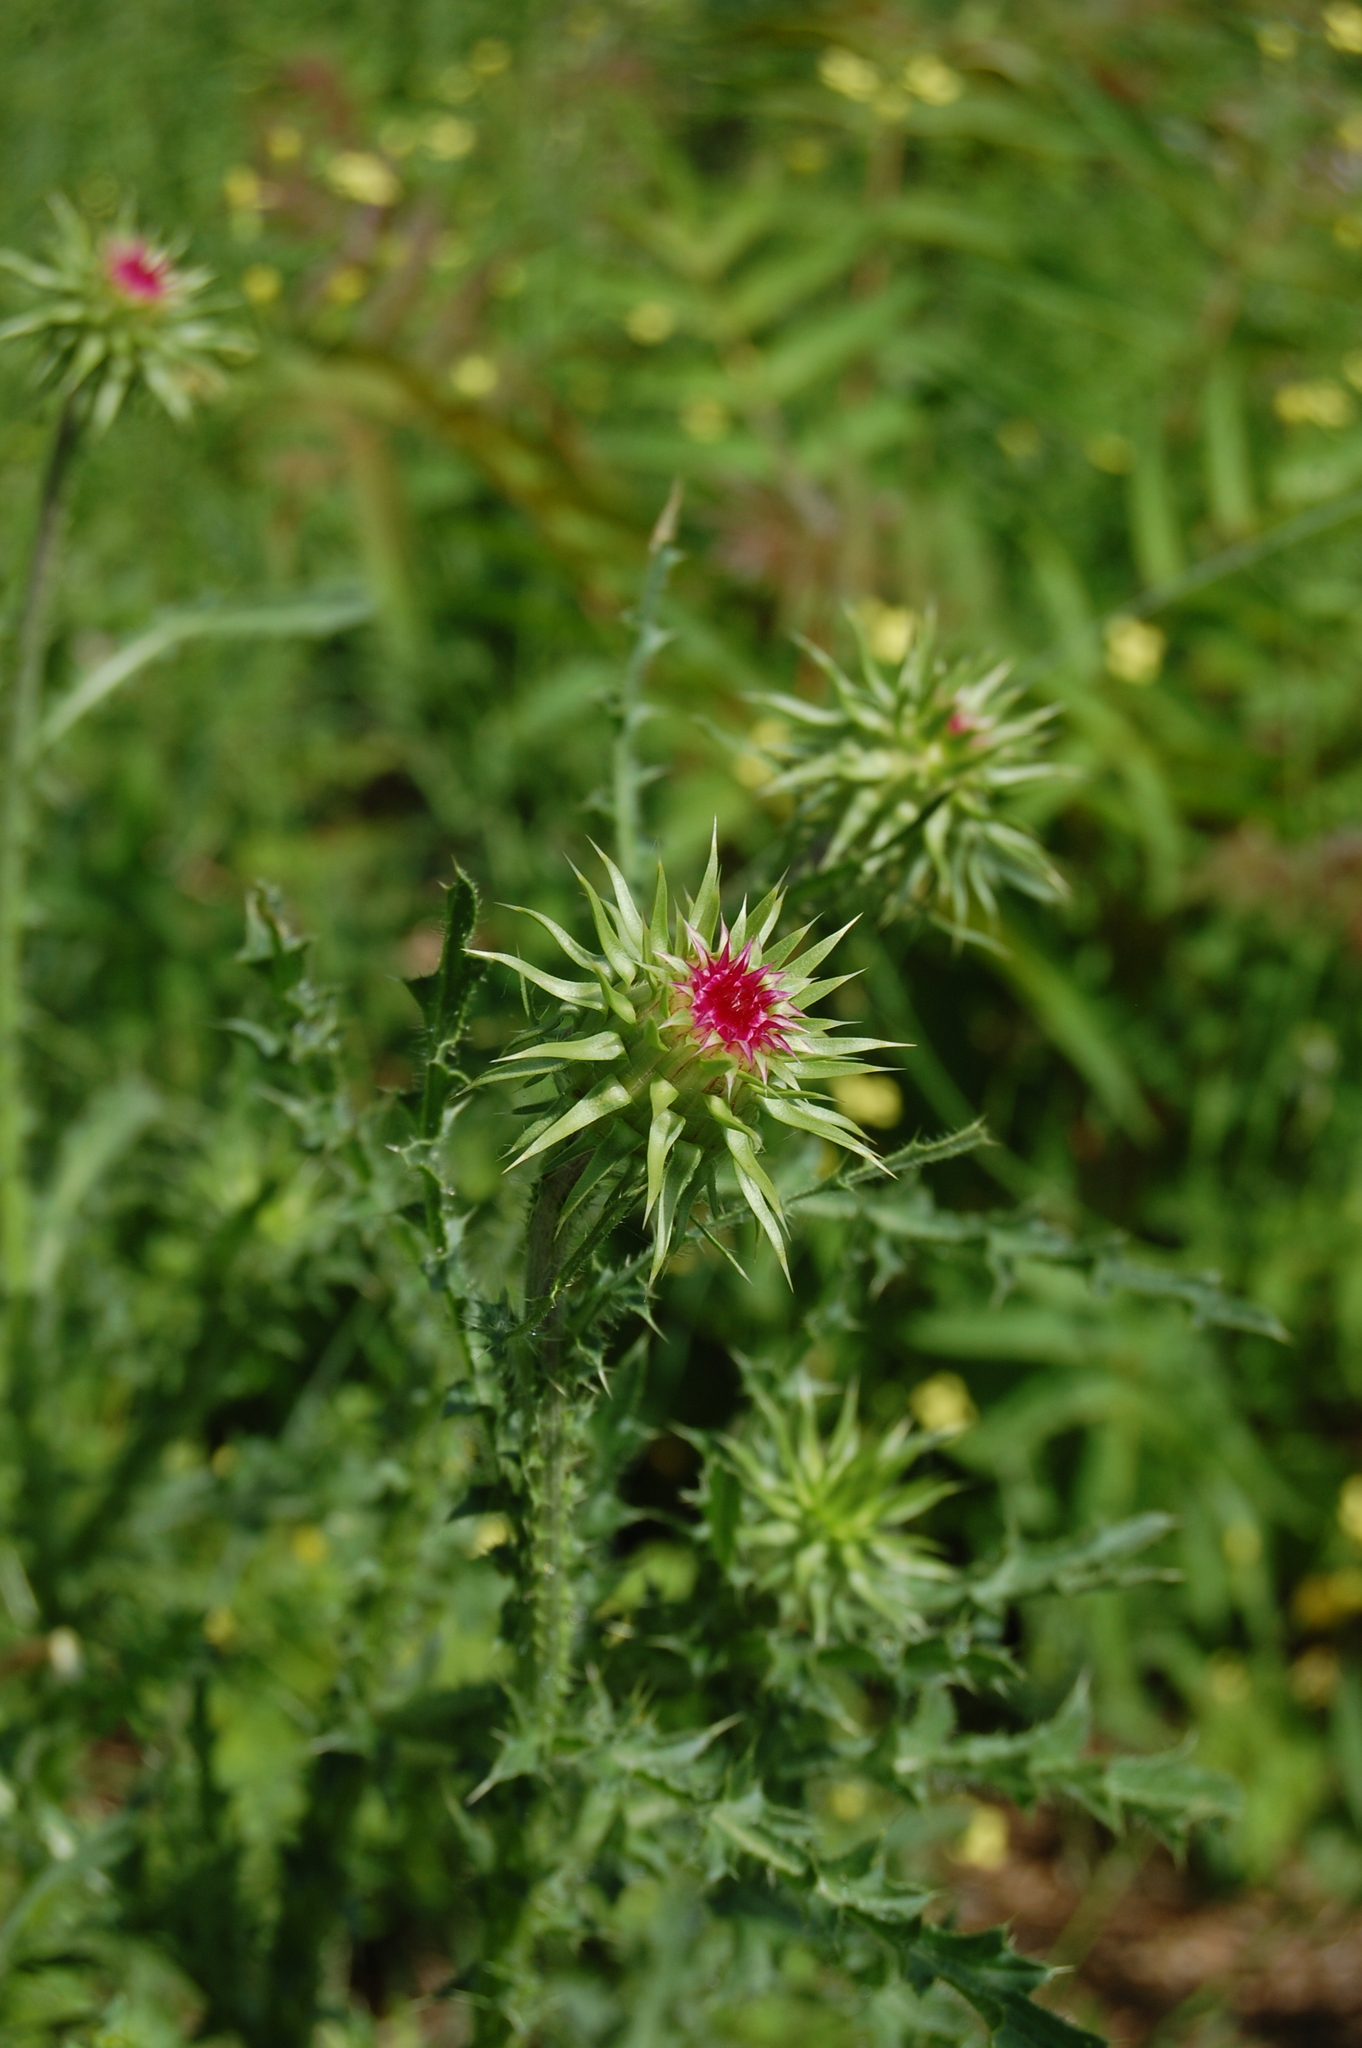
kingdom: Plantae
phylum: Tracheophyta
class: Magnoliopsida
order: Asterales
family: Asteraceae
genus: Carduus
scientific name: Carduus nutans
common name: Musk thistle
